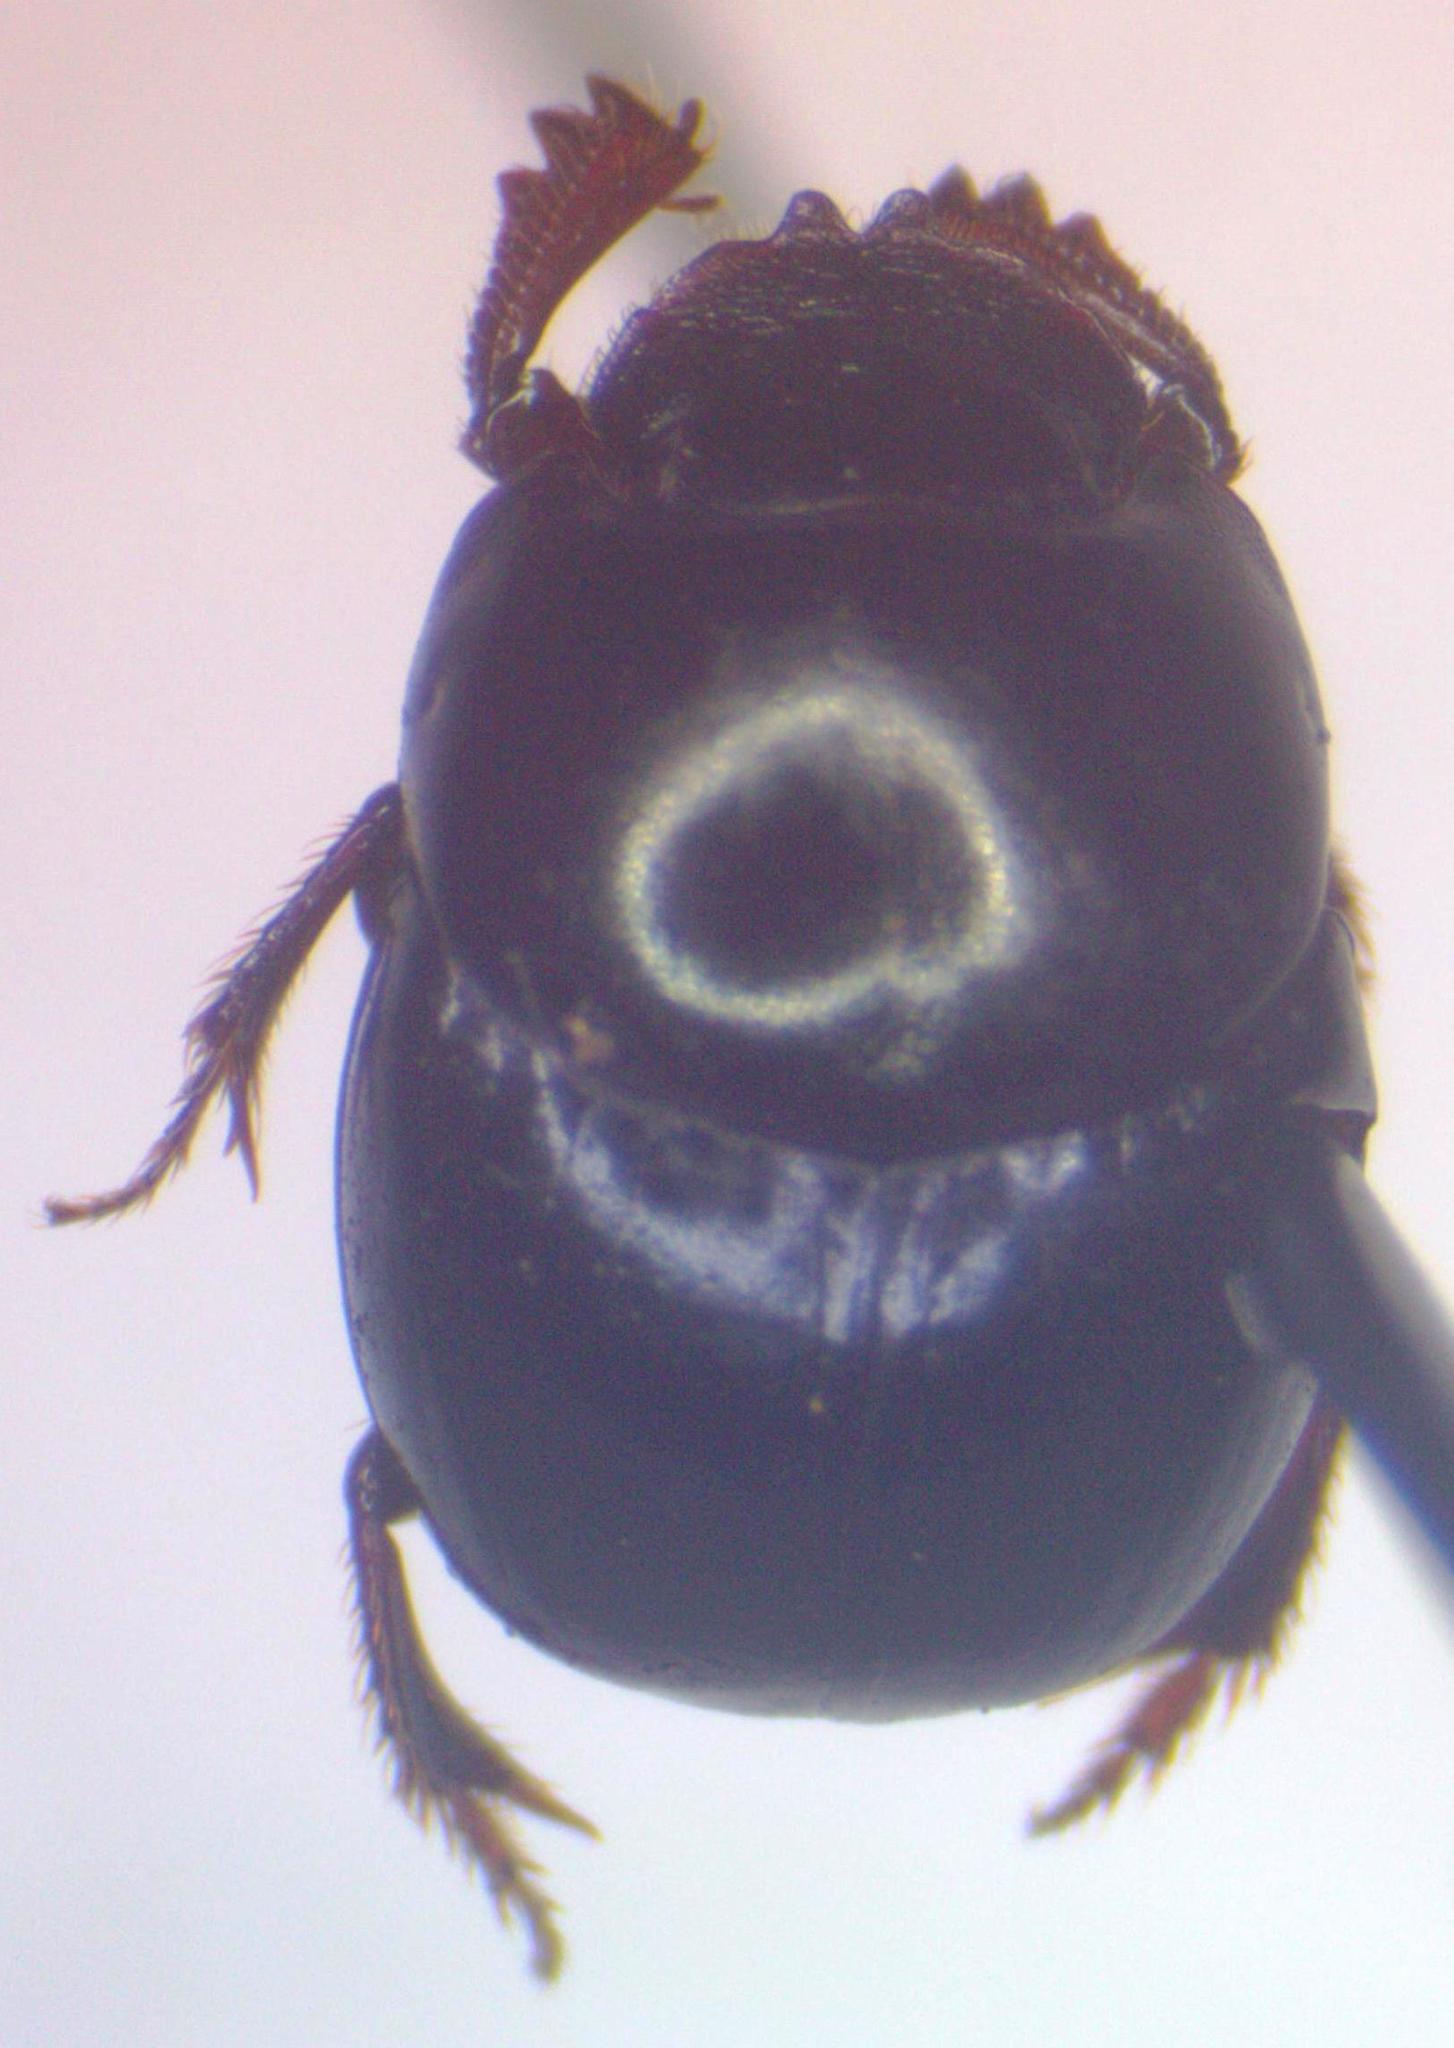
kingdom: Animalia
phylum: Arthropoda
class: Insecta
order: Coleoptera
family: Scarabaeidae
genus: Canthidium
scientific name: Canthidium laetum
